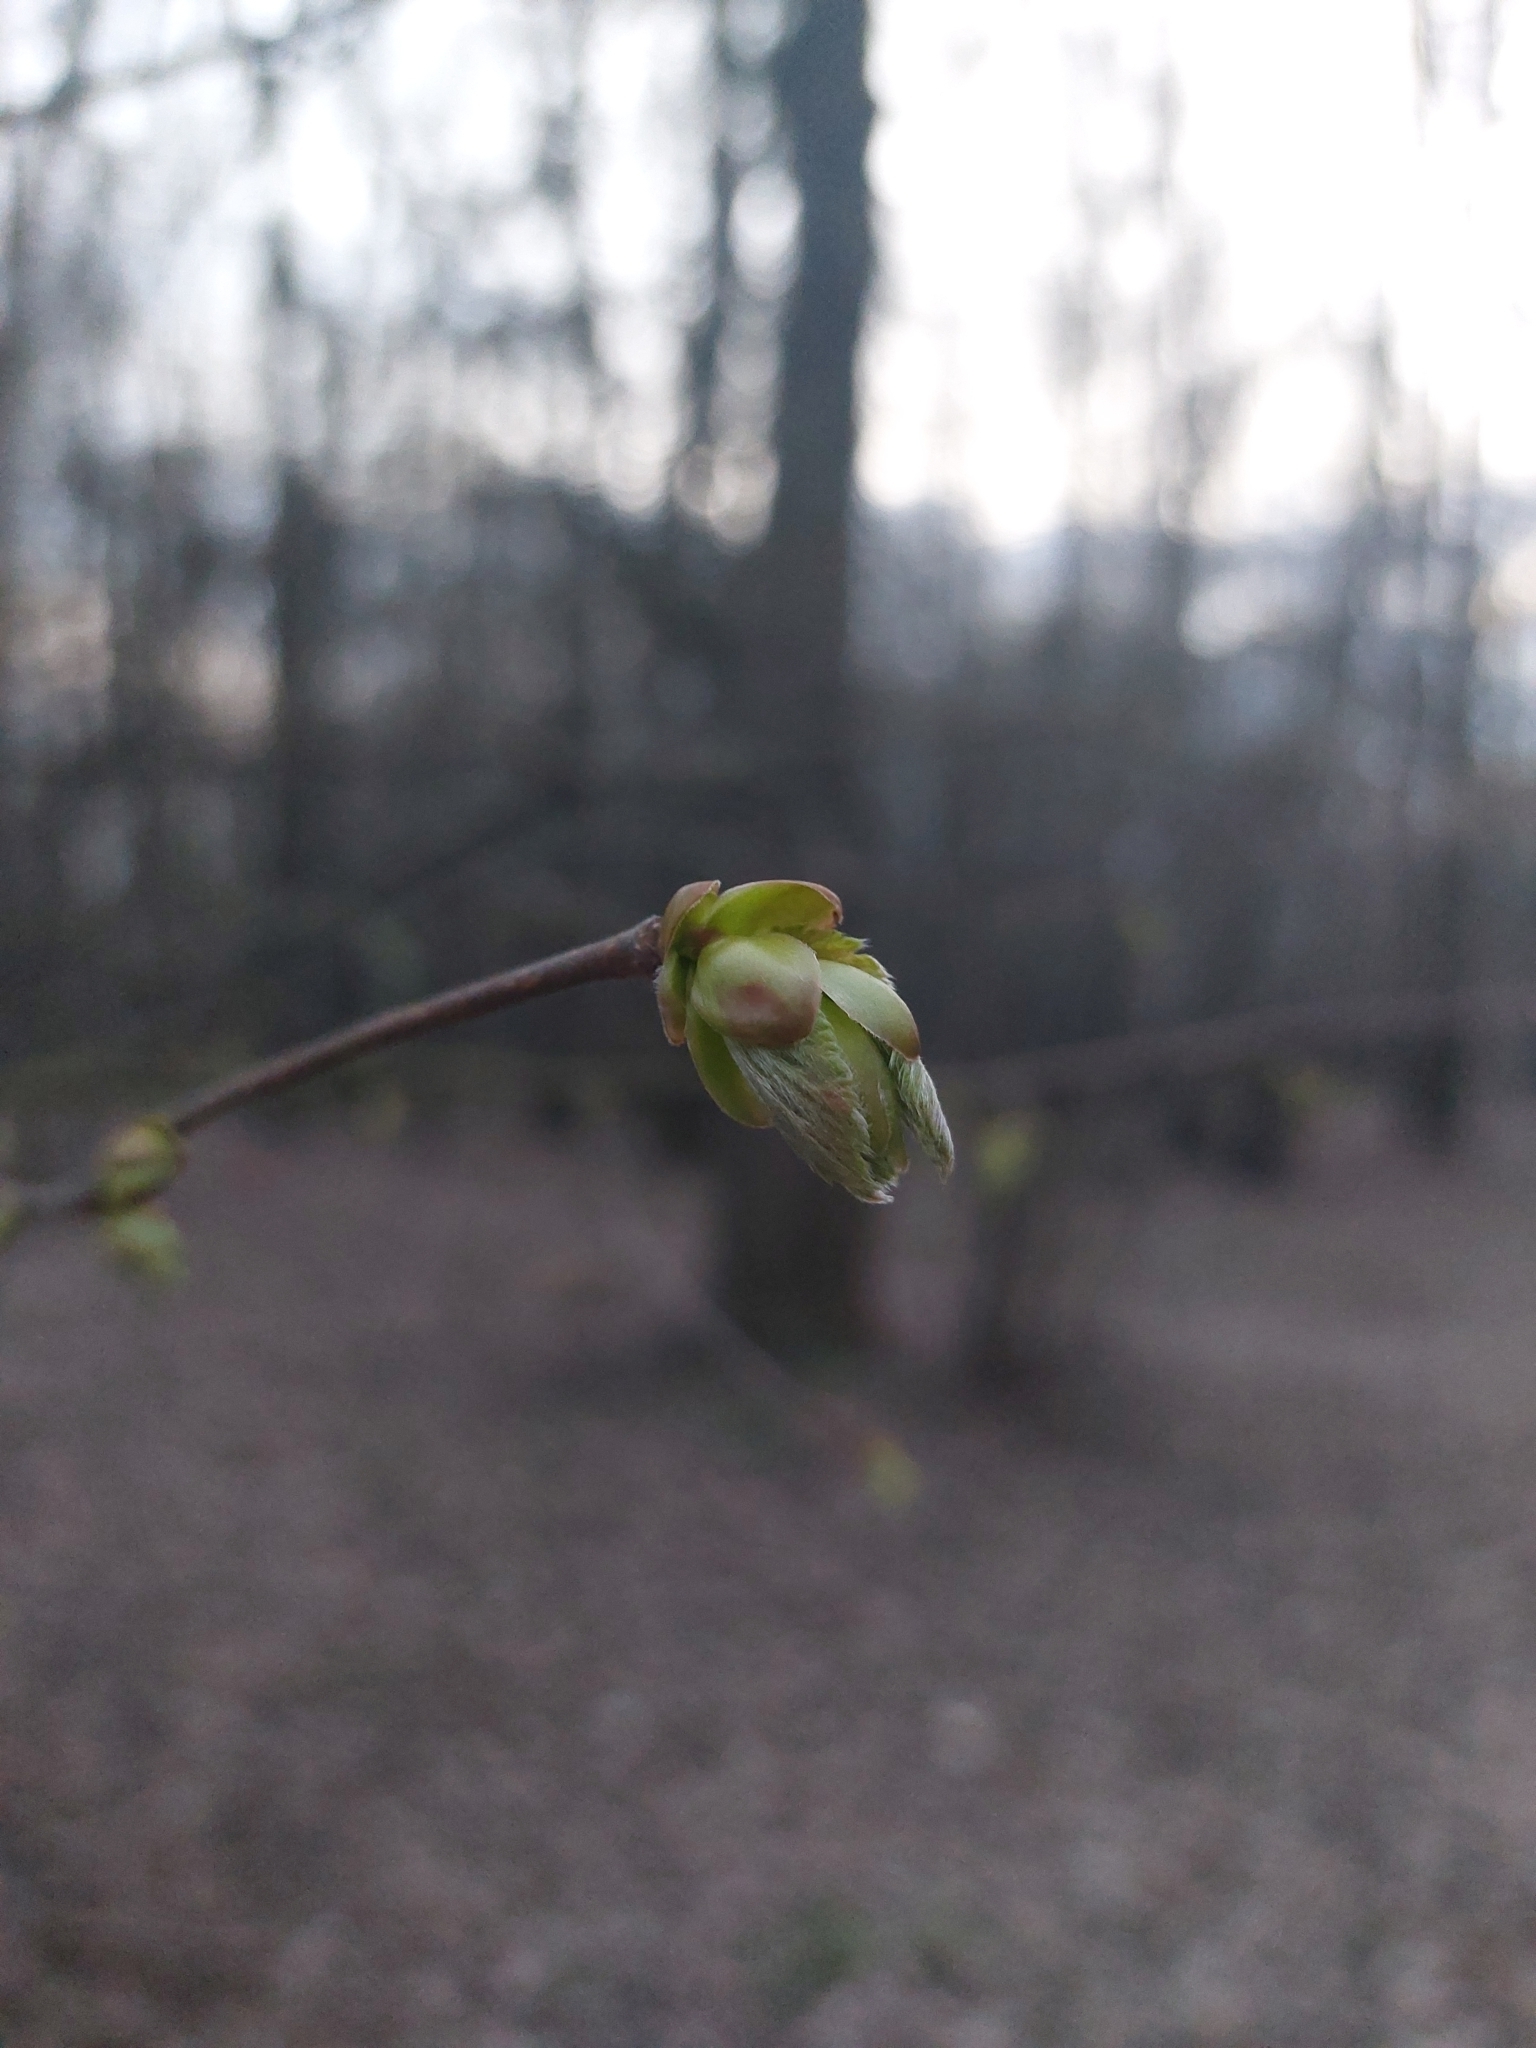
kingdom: Plantae
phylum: Tracheophyta
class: Magnoliopsida
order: Fagales
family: Betulaceae
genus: Corylus
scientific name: Corylus avellana
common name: European hazel
